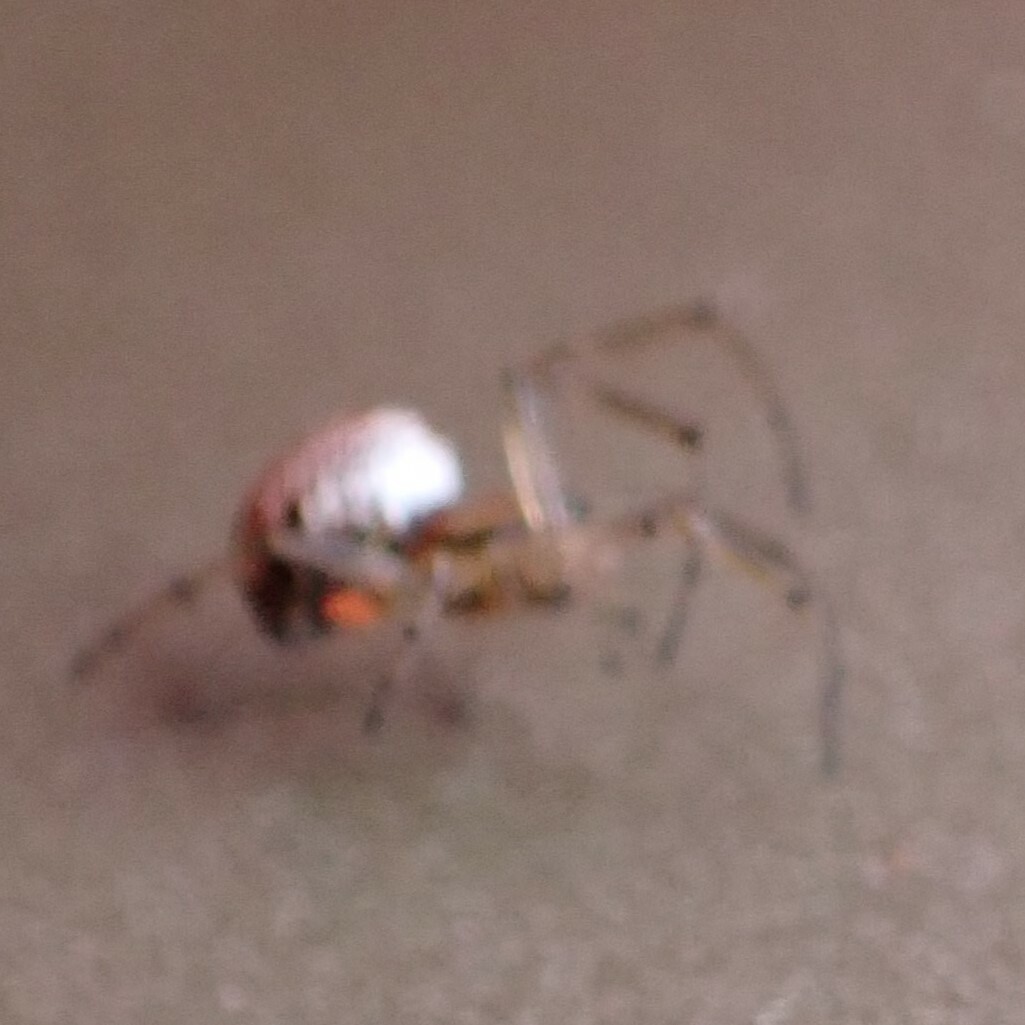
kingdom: Animalia
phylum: Arthropoda
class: Arachnida
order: Araneae
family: Tetragnathidae
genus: Leucauge
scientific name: Leucauge venusta
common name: Longjawed orb weavers
